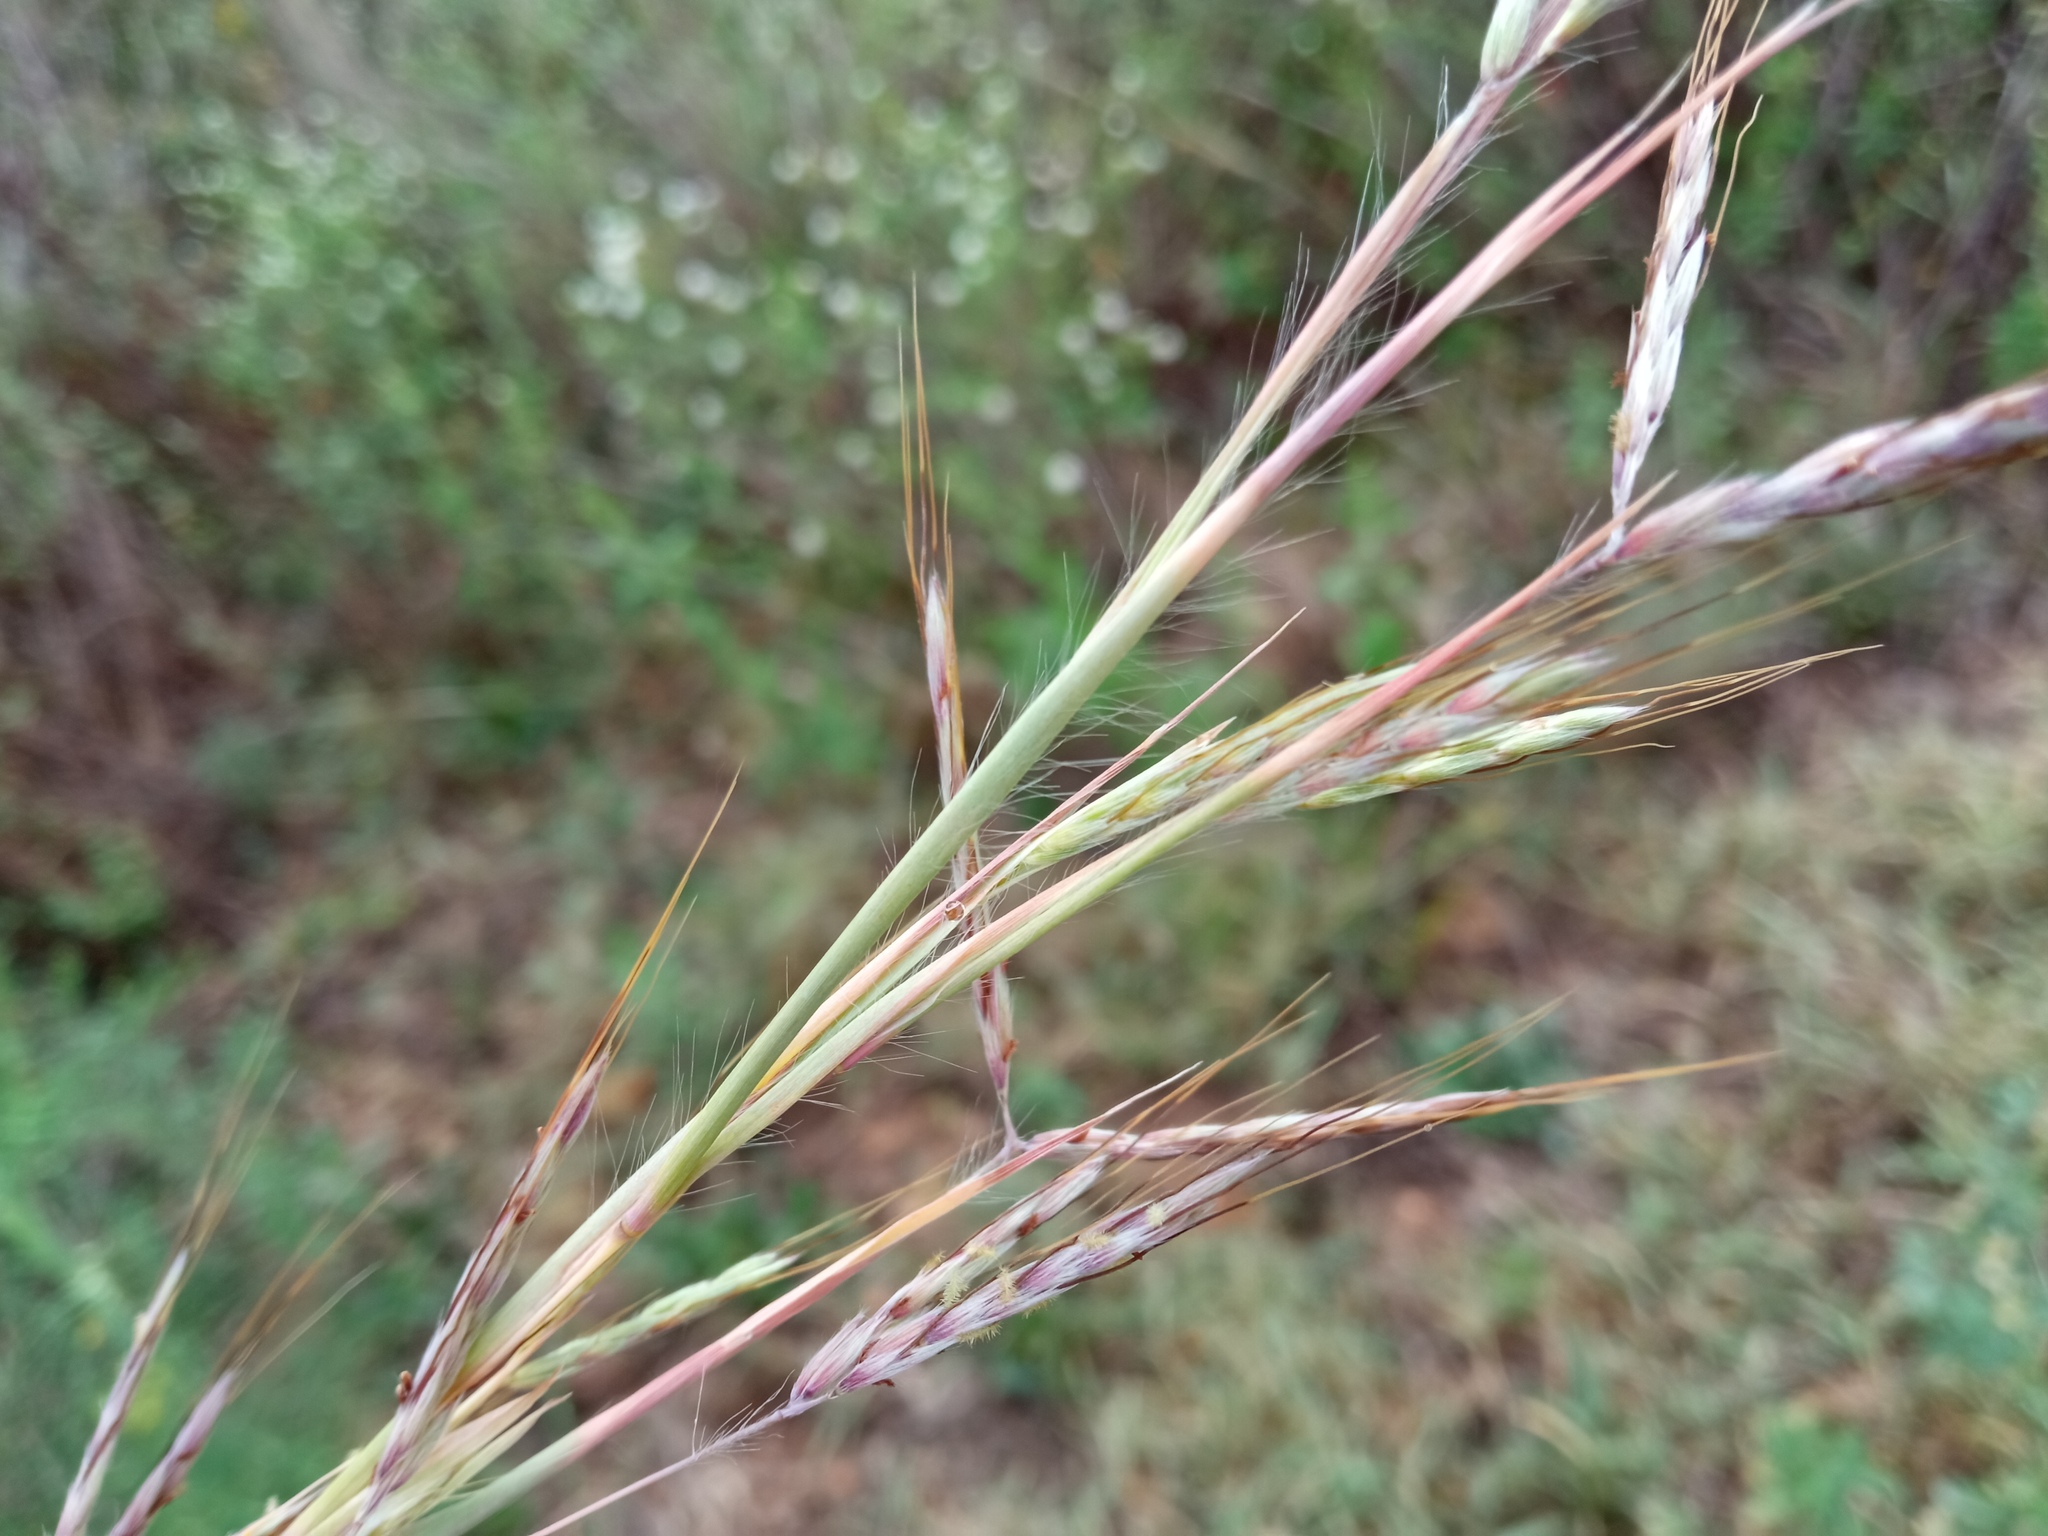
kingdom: Plantae
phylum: Tracheophyta
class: Liliopsida
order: Poales
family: Poaceae
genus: Hyparrhenia
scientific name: Hyparrhenia hirta
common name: Thatching grass
